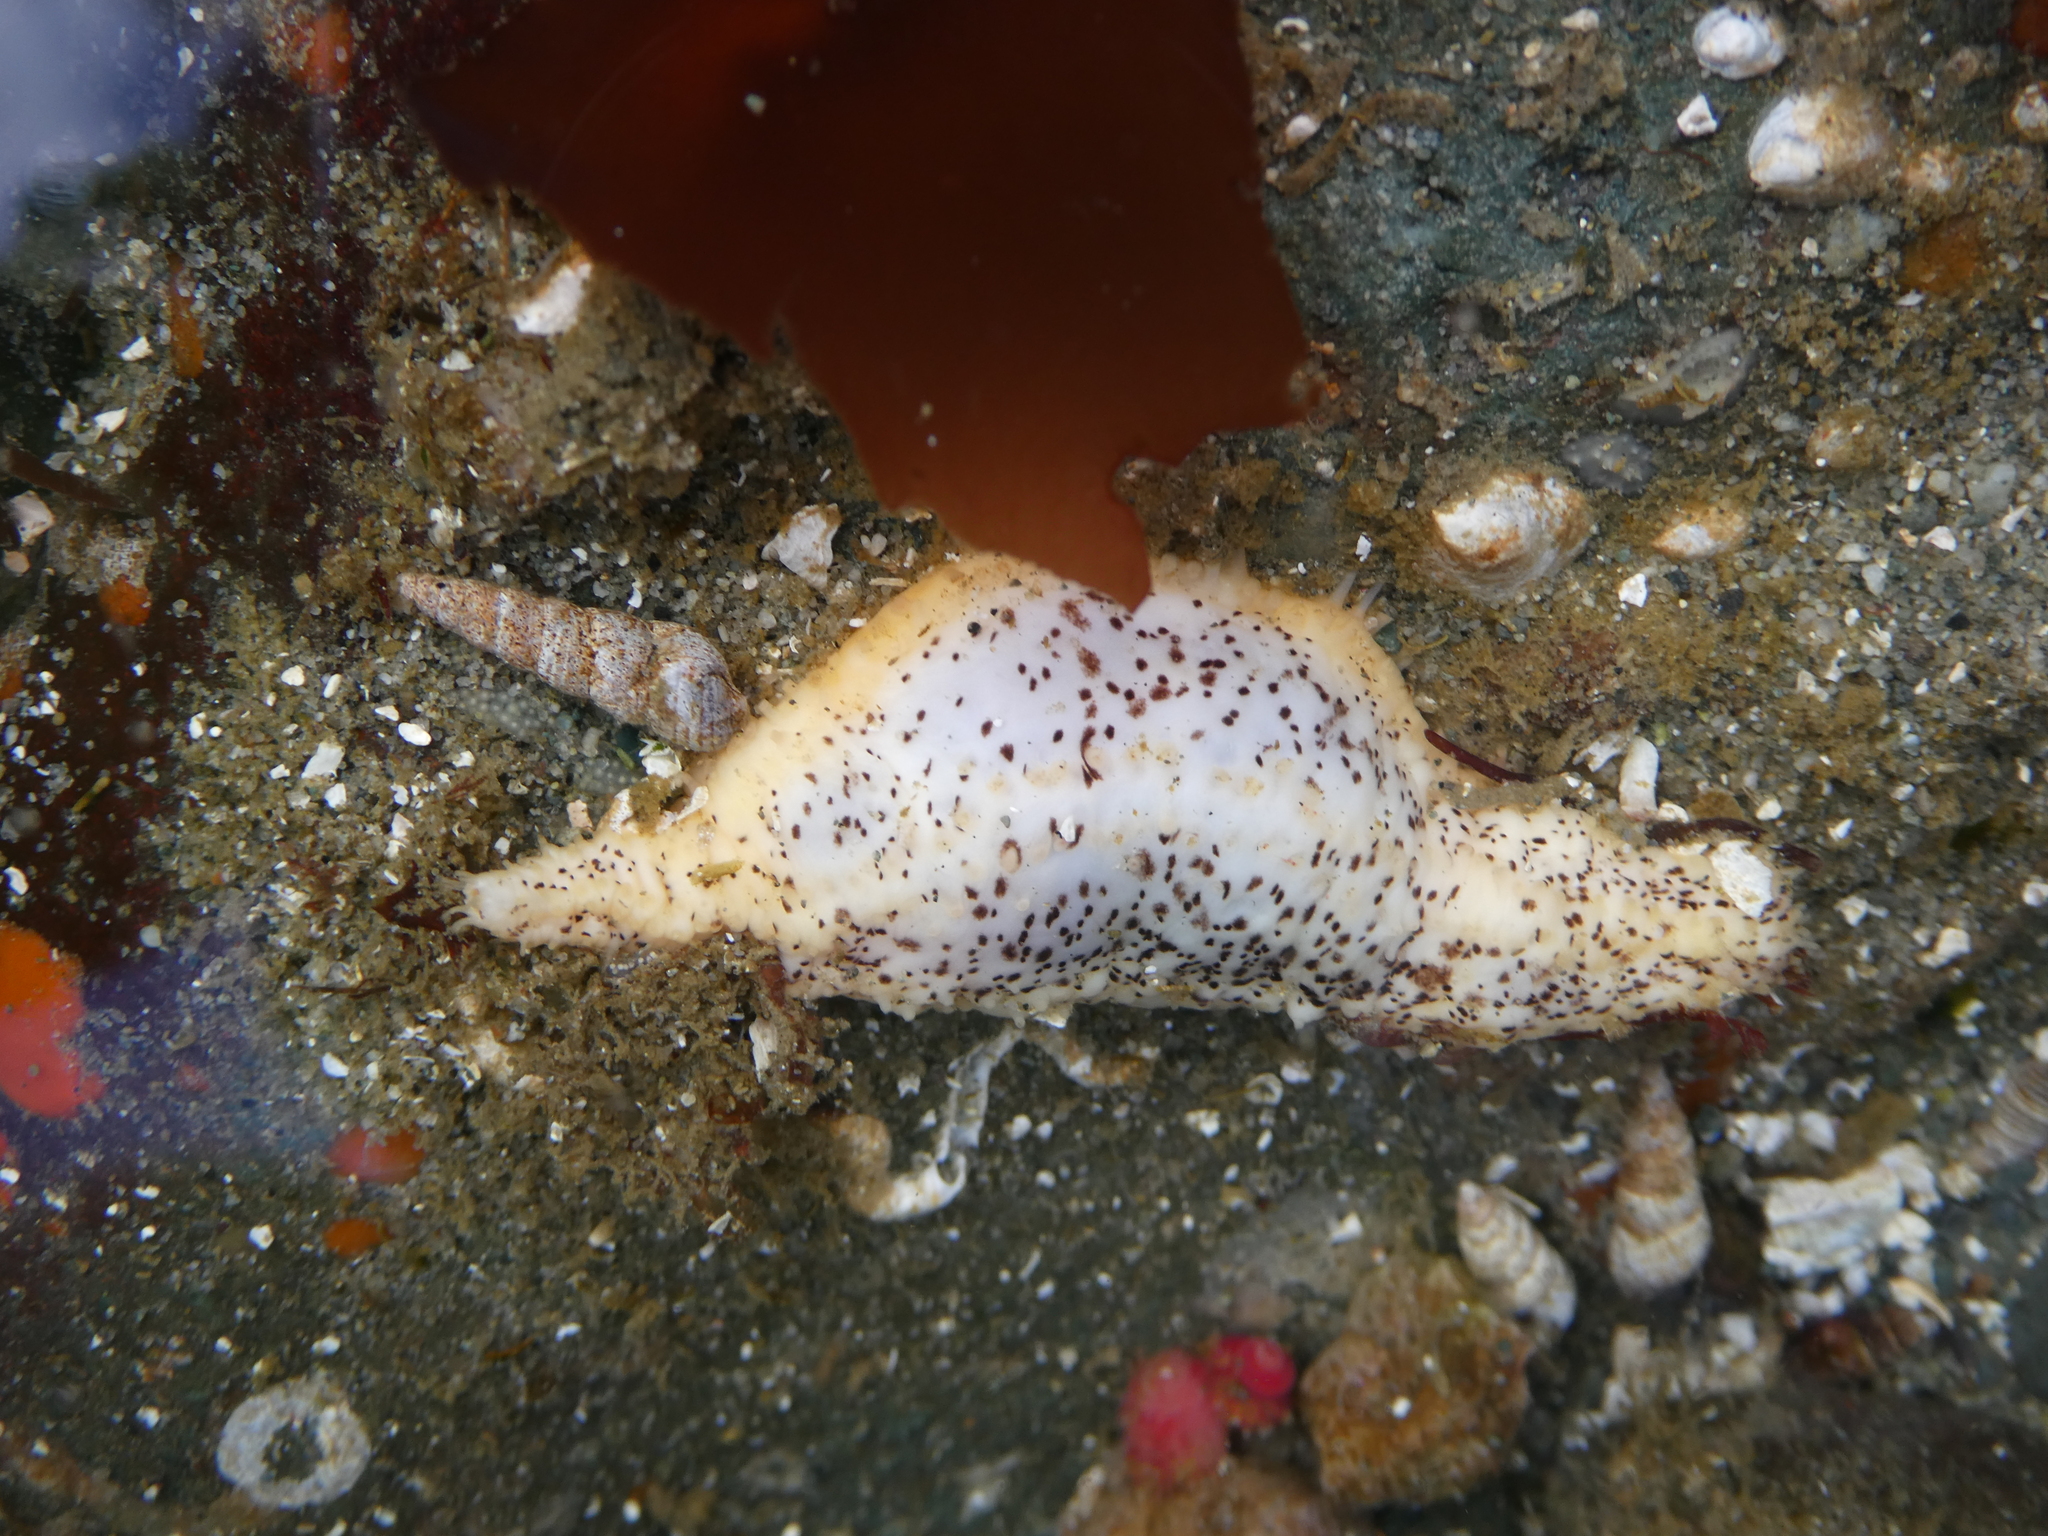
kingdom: Animalia
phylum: Echinodermata
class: Holothuroidea
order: Dendrochirotida
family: Cucumariidae
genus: Cucumaria
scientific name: Cucumaria piperata
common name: Peppered sea cucumber
